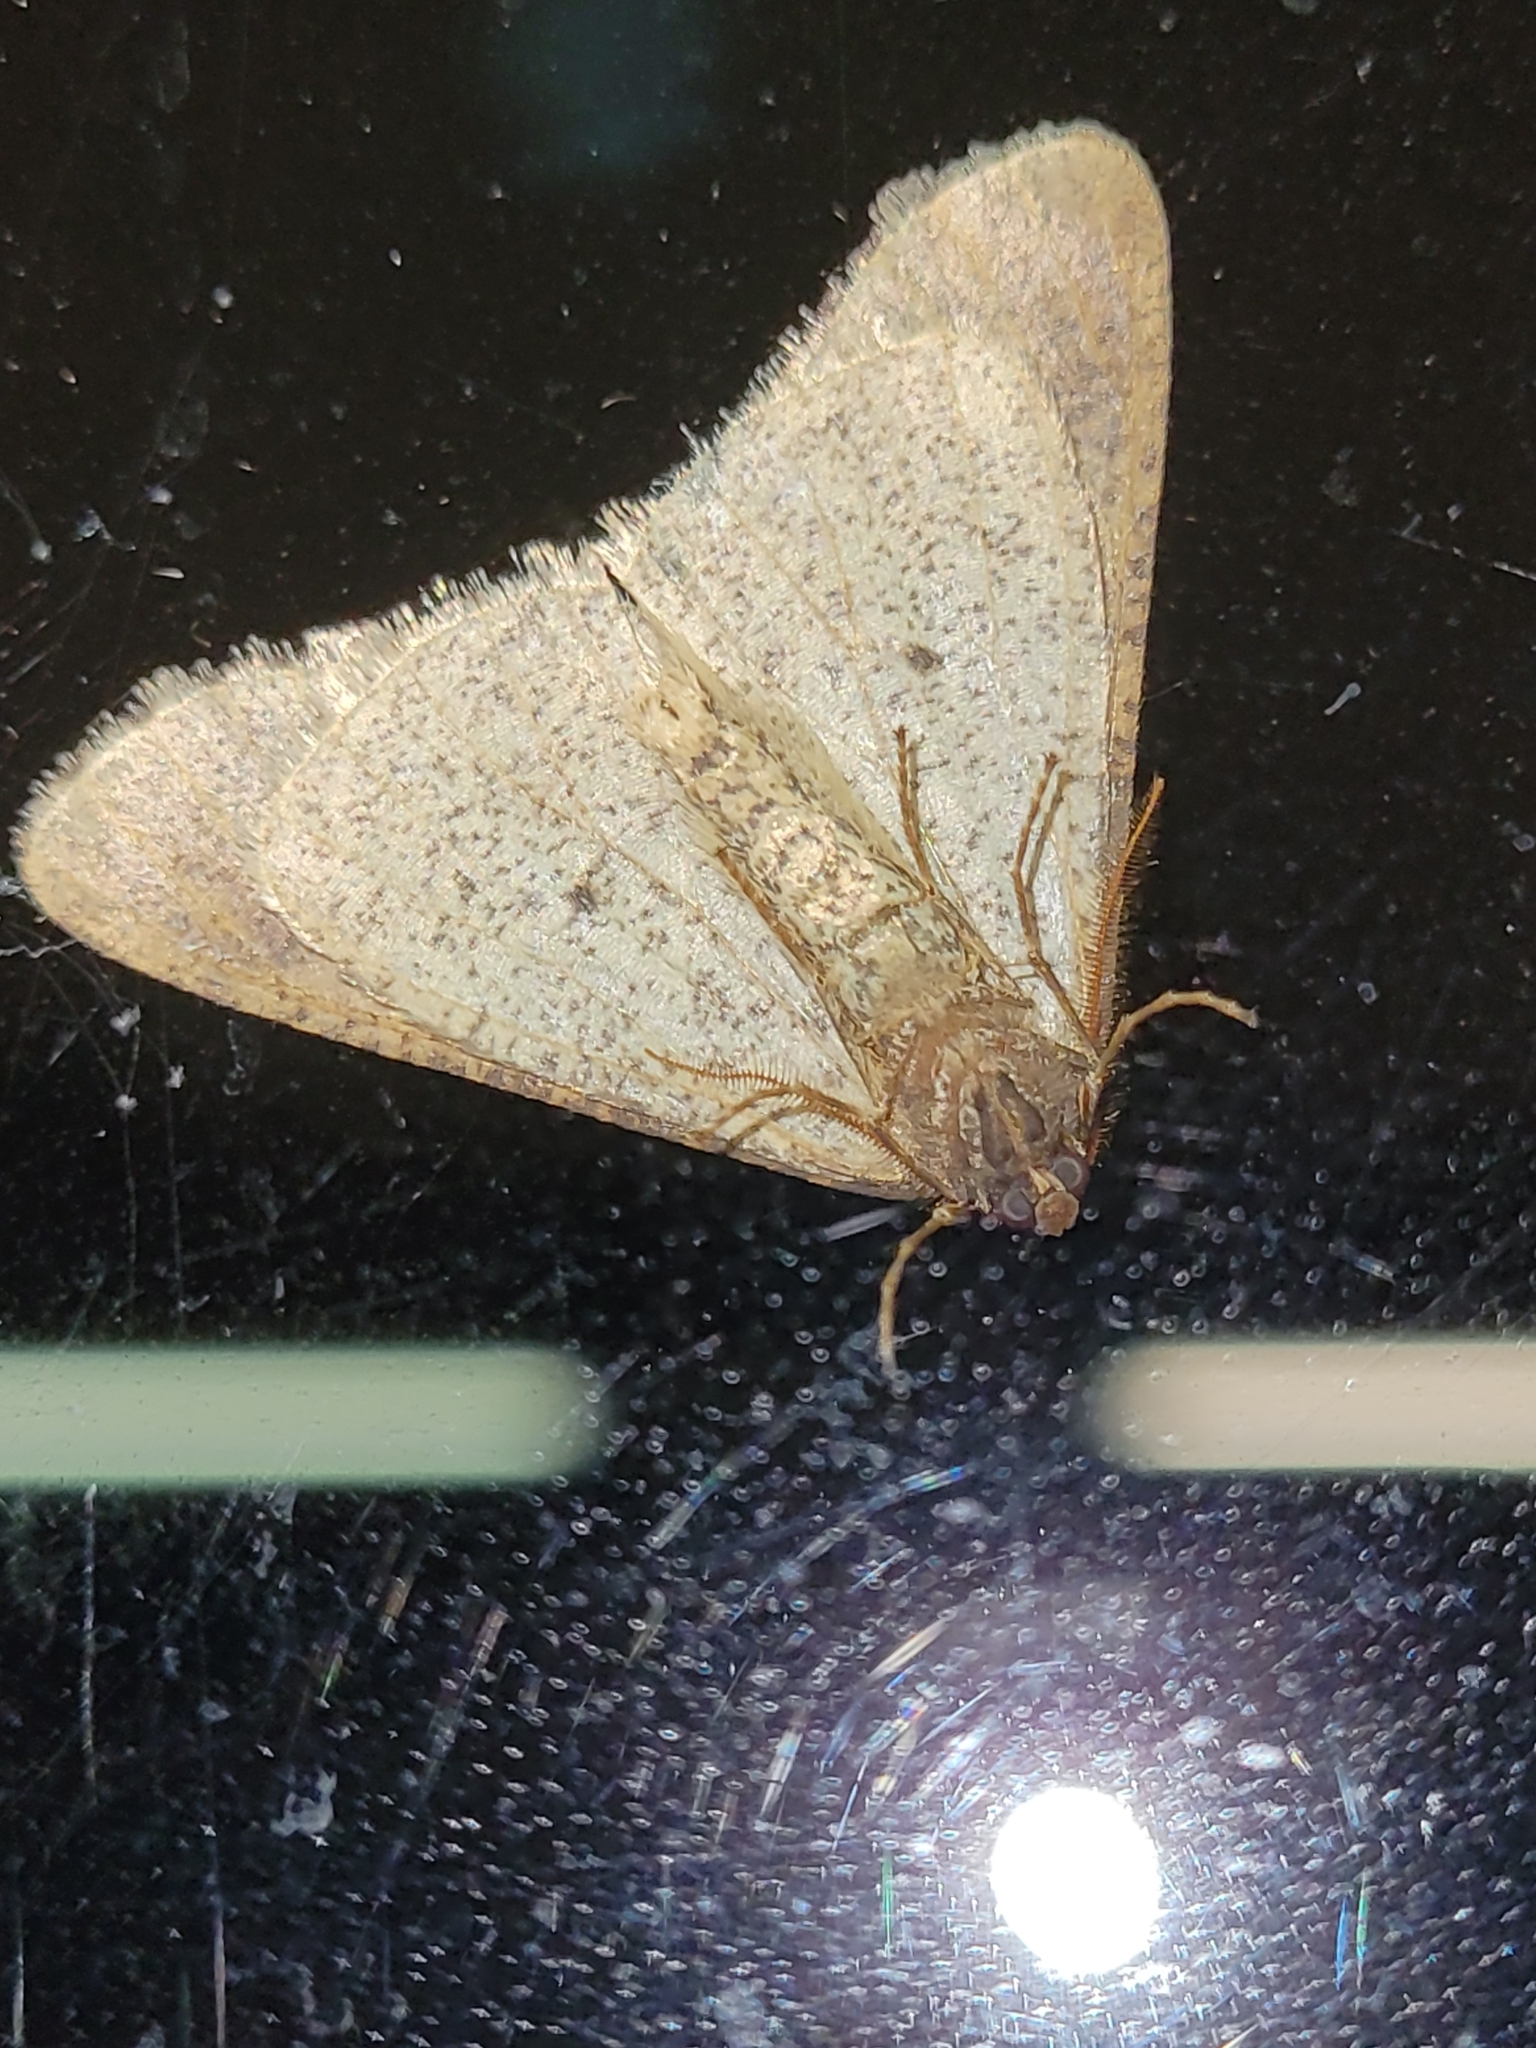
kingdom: Animalia
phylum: Arthropoda
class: Insecta
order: Lepidoptera
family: Geometridae
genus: Erannis
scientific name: Erannis defoliaria
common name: Mottled umber
